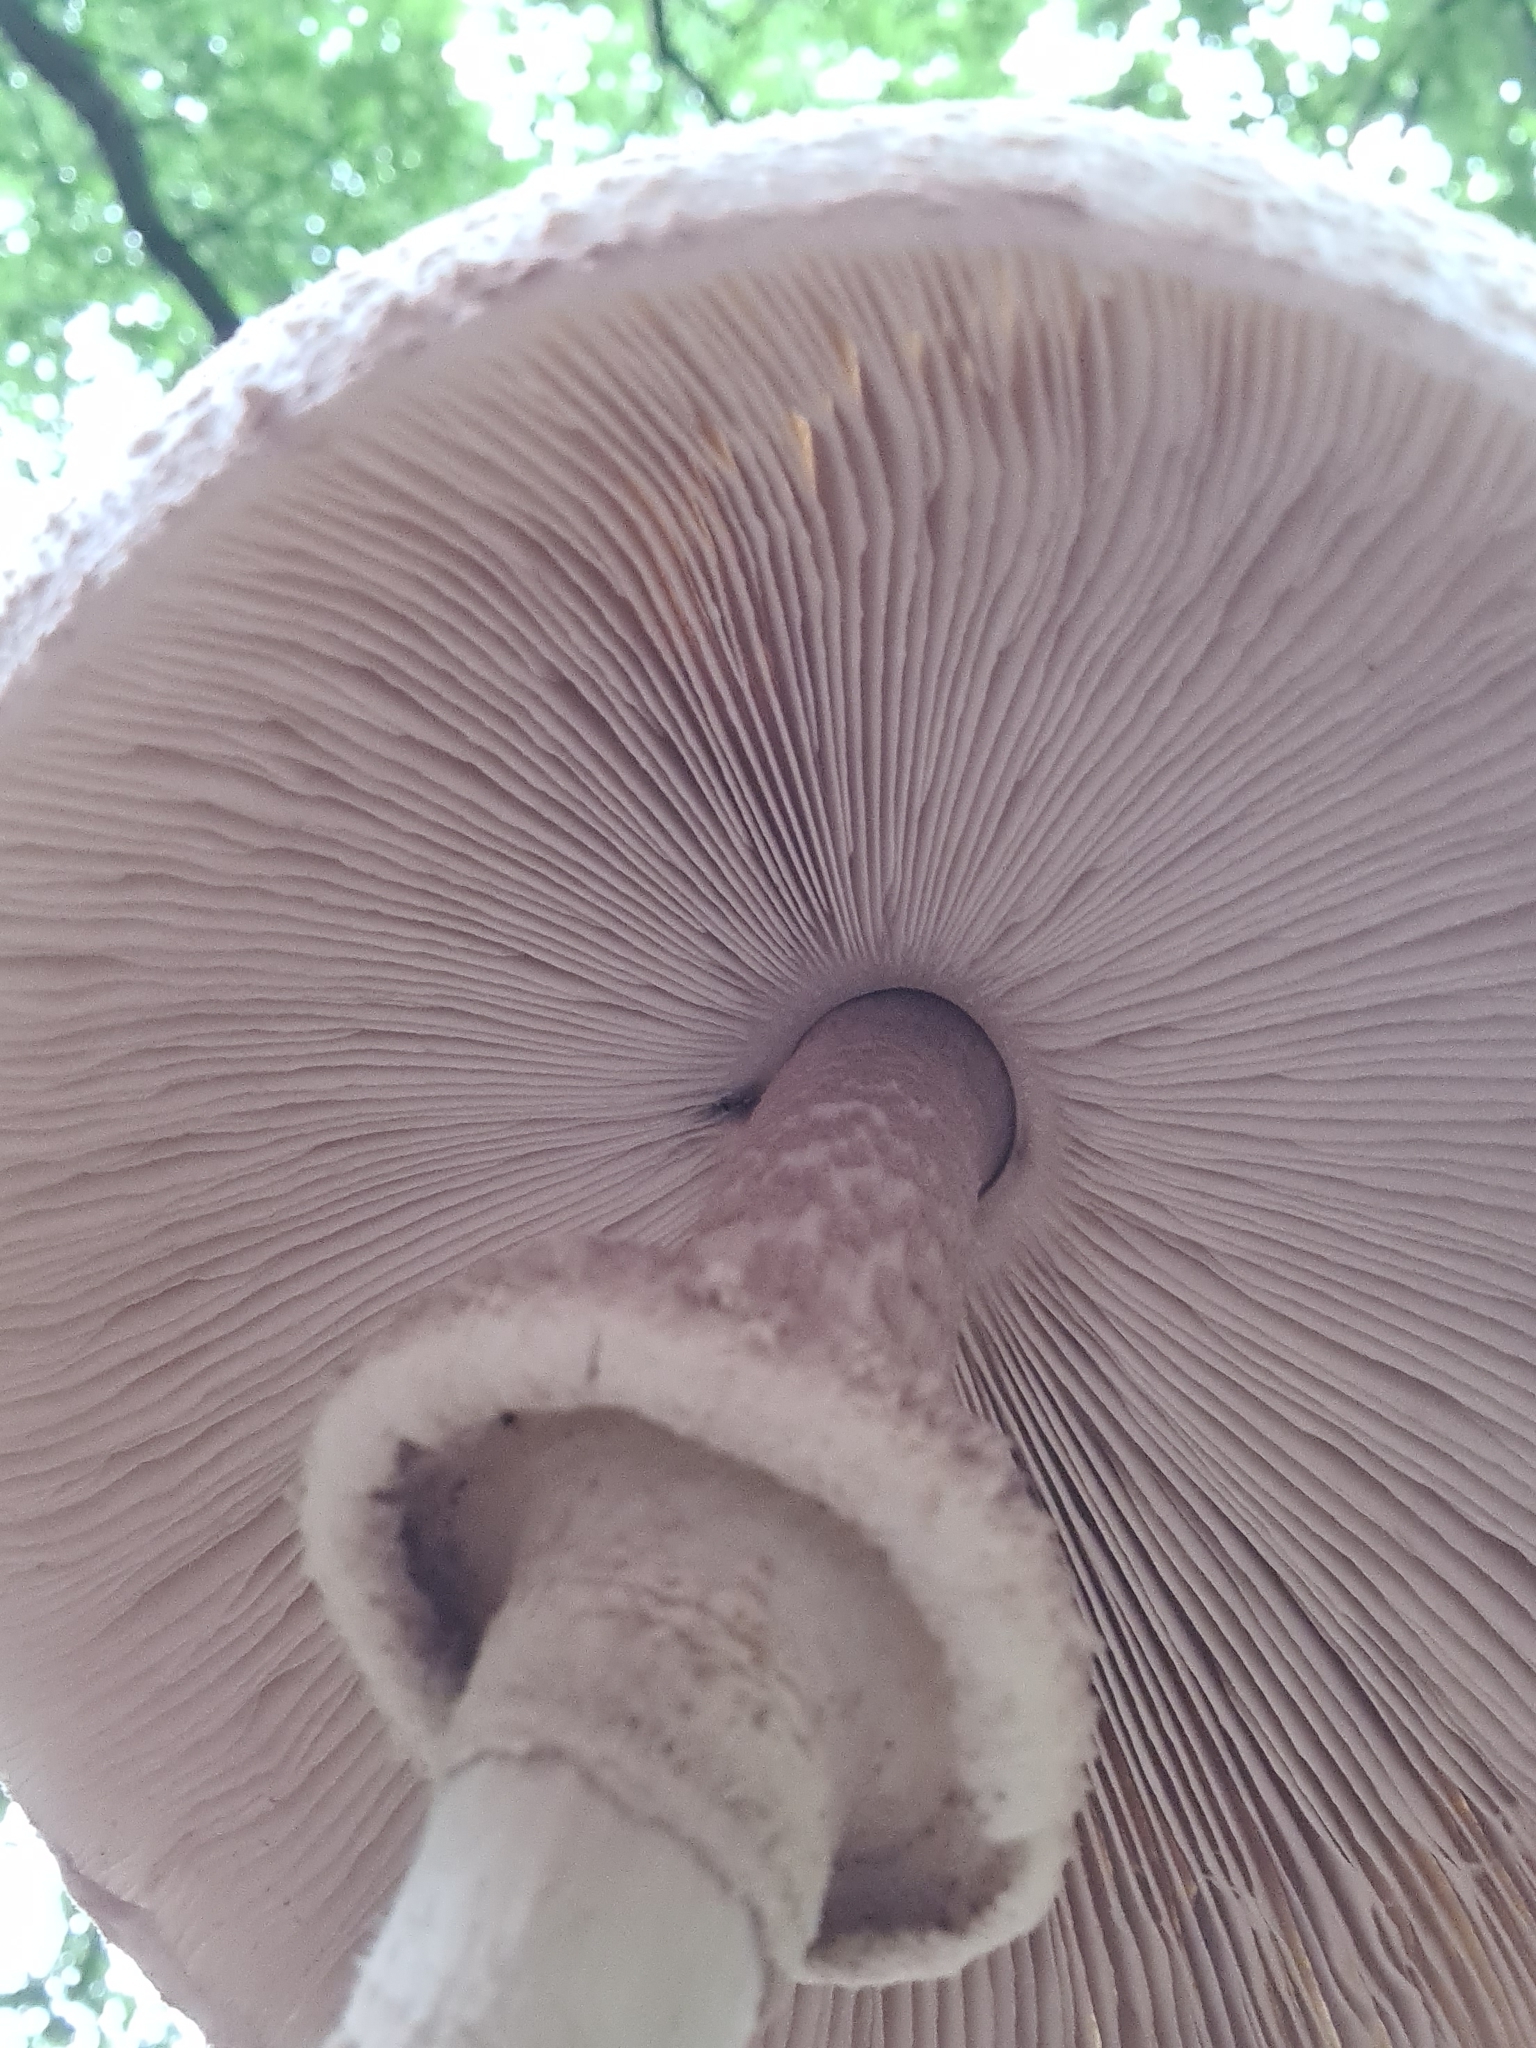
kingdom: Fungi
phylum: Basidiomycota
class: Agaricomycetes
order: Agaricales
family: Agaricaceae
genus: Macrolepiota
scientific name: Macrolepiota mastoidea
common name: Slender parasol
